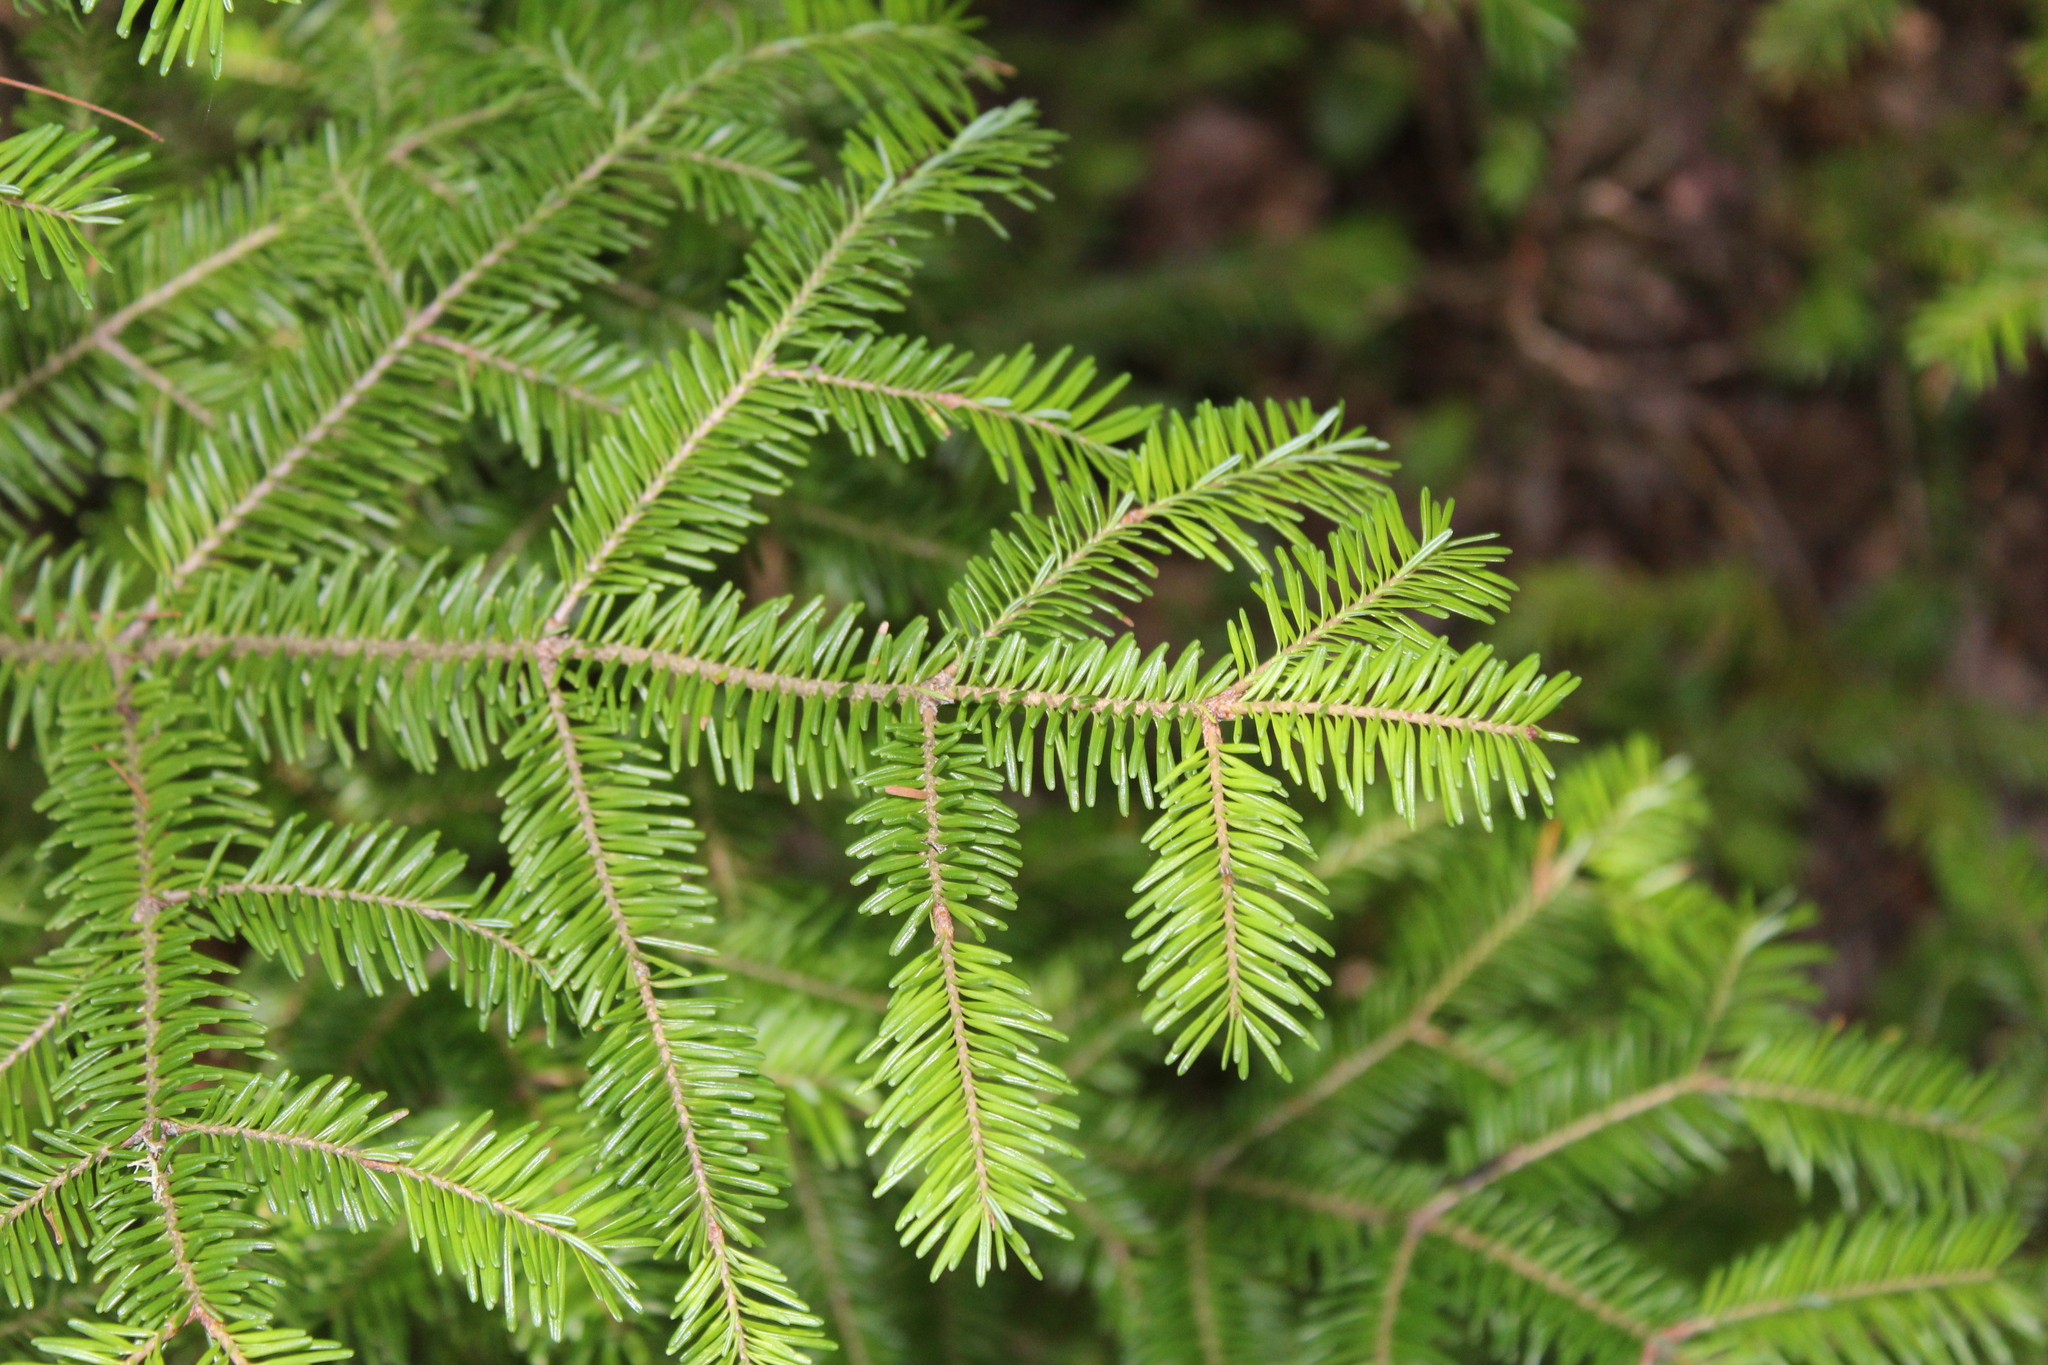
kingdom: Plantae
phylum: Tracheophyta
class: Pinopsida
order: Pinales
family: Pinaceae
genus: Abies
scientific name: Abies balsamea
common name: Balsam fir
